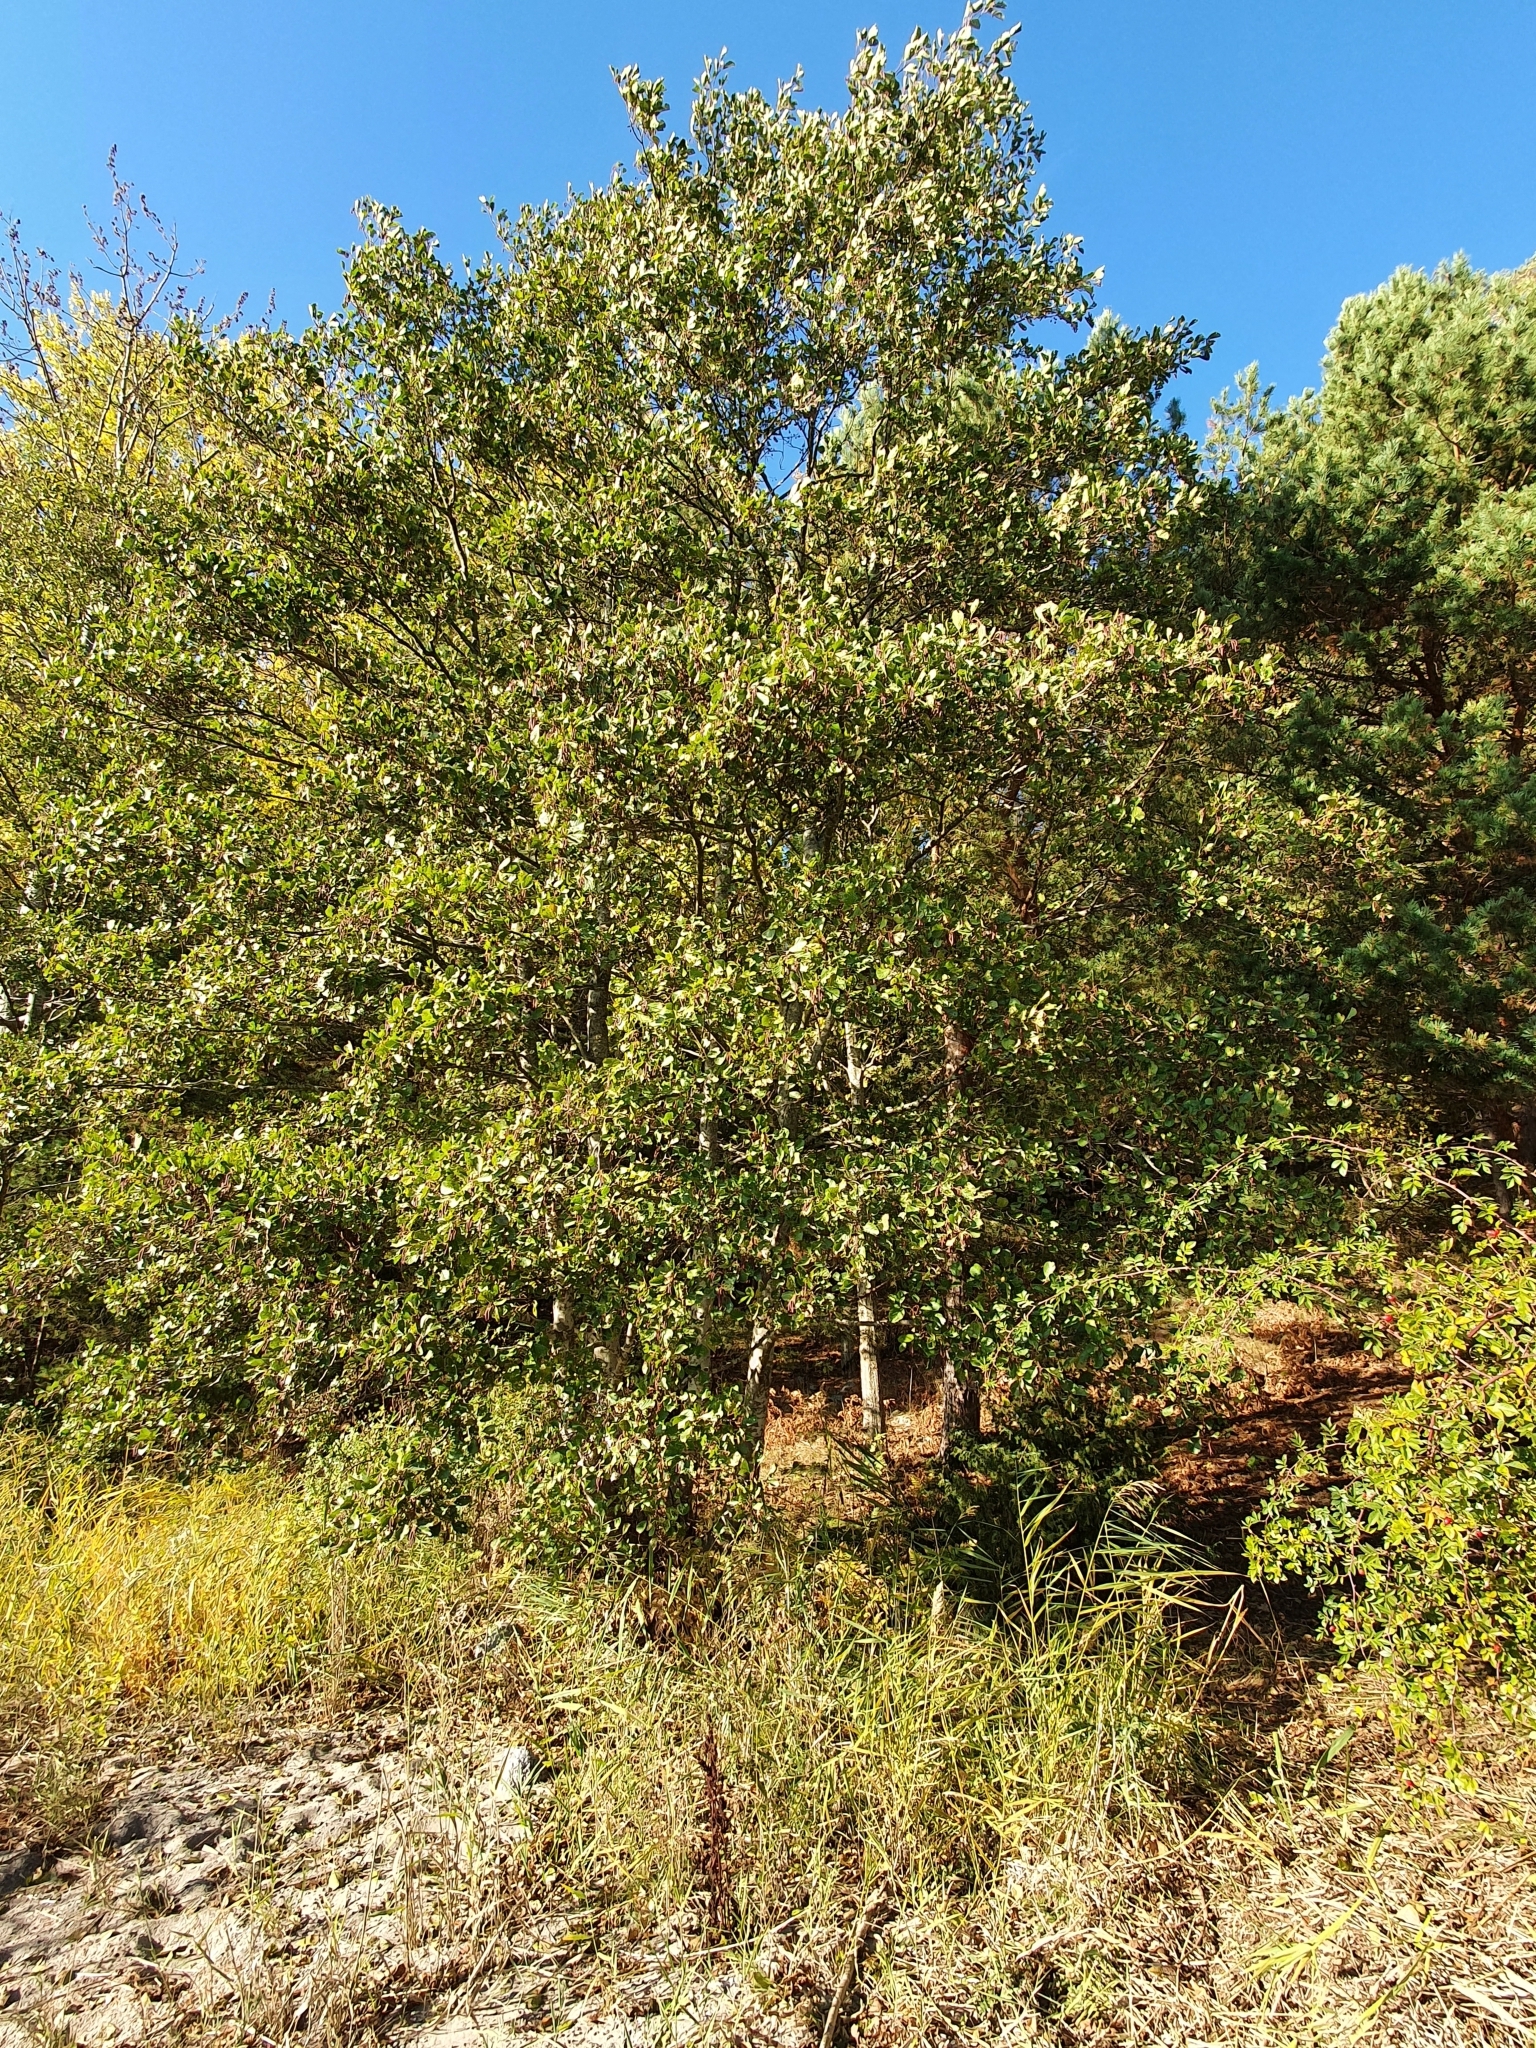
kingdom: Plantae
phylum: Tracheophyta
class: Magnoliopsida
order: Fagales
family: Betulaceae
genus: Alnus
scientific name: Alnus glutinosa
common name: Black alder
